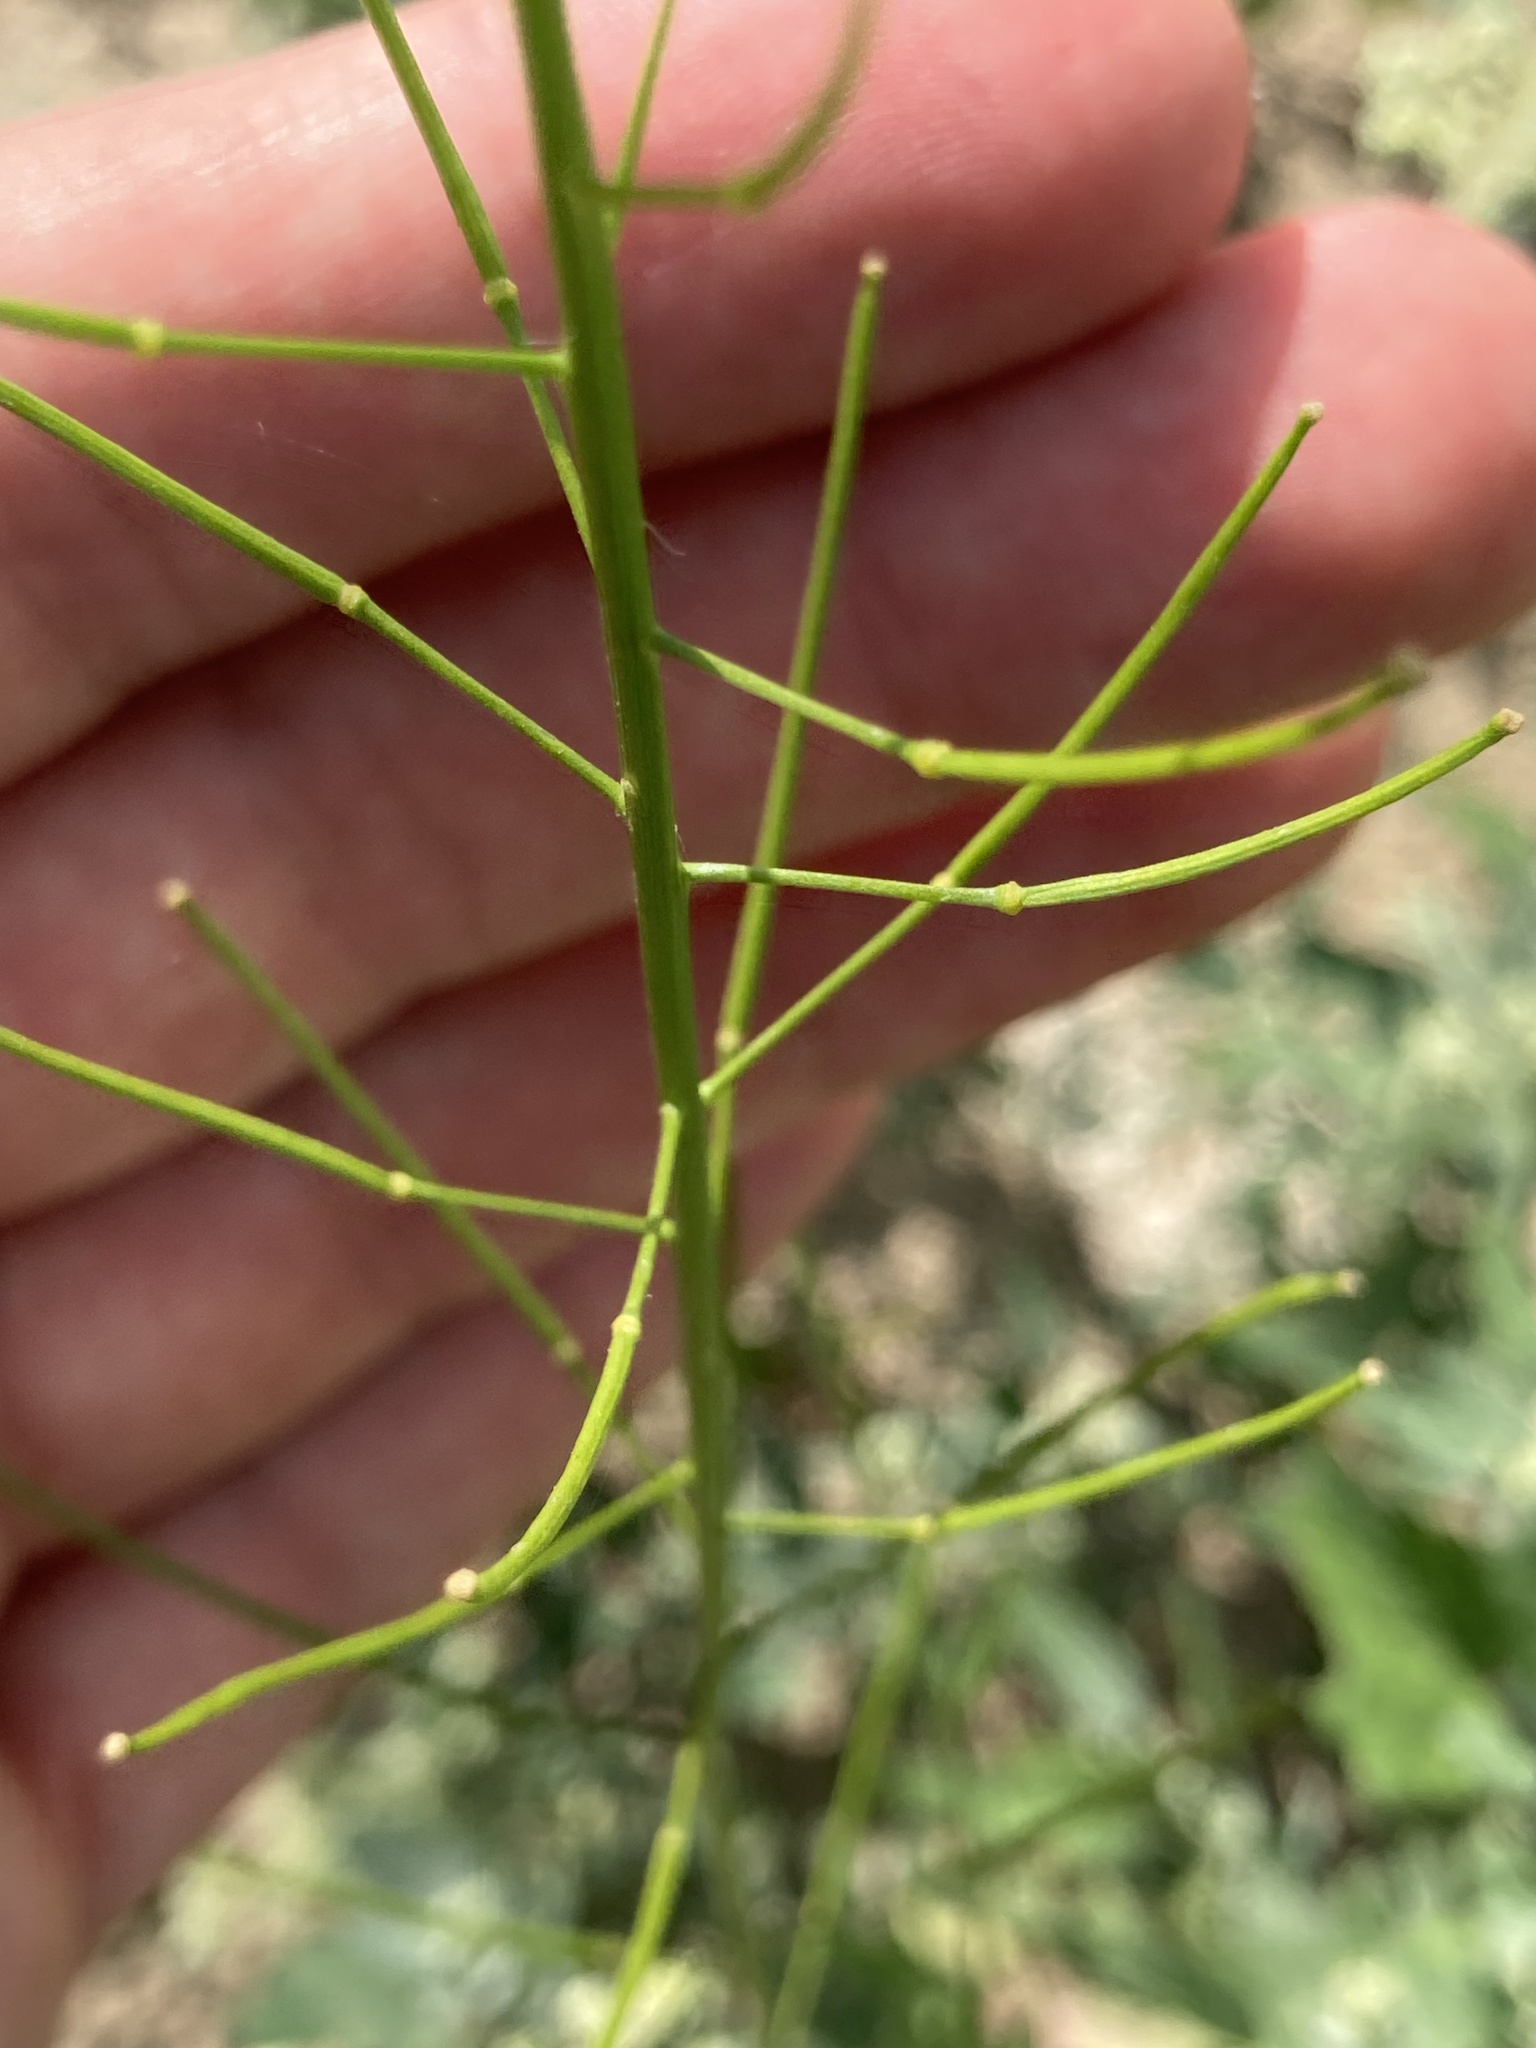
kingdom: Plantae
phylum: Tracheophyta
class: Magnoliopsida
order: Brassicales
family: Brassicaceae
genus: Sisymbrium
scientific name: Sisymbrium loeselii
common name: False london-rocket
